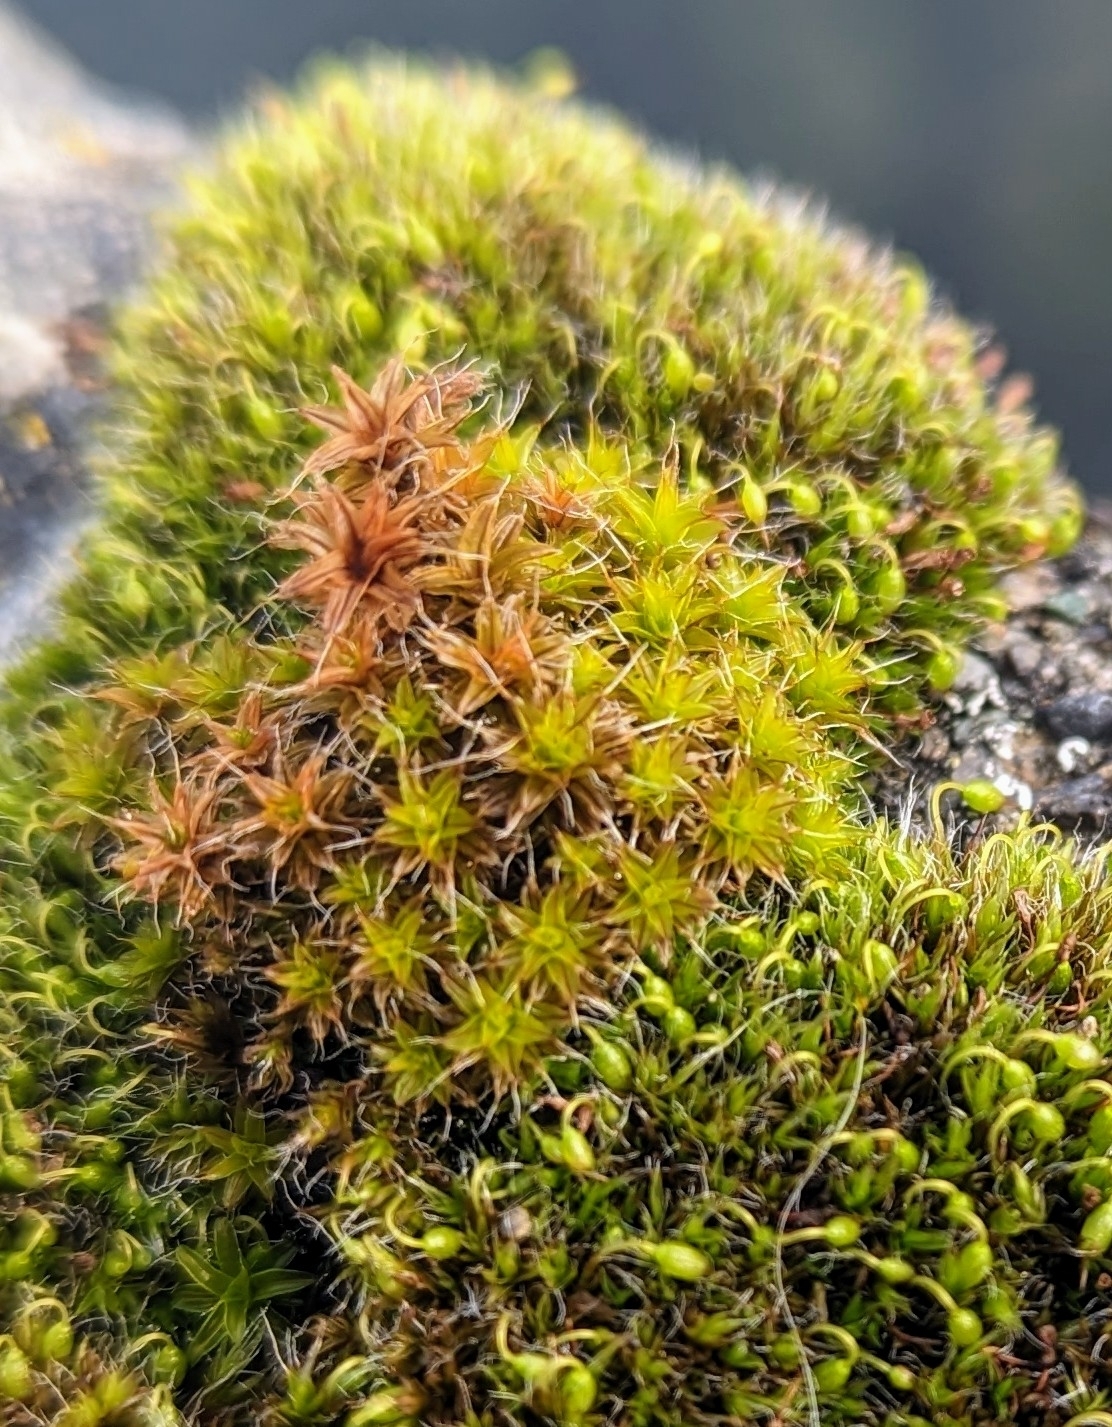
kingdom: Plantae
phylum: Bryophyta
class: Bryopsida
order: Pottiales
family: Pottiaceae
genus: Syntrichia
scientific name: Syntrichia ruralis
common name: Sidewalk screw moss
